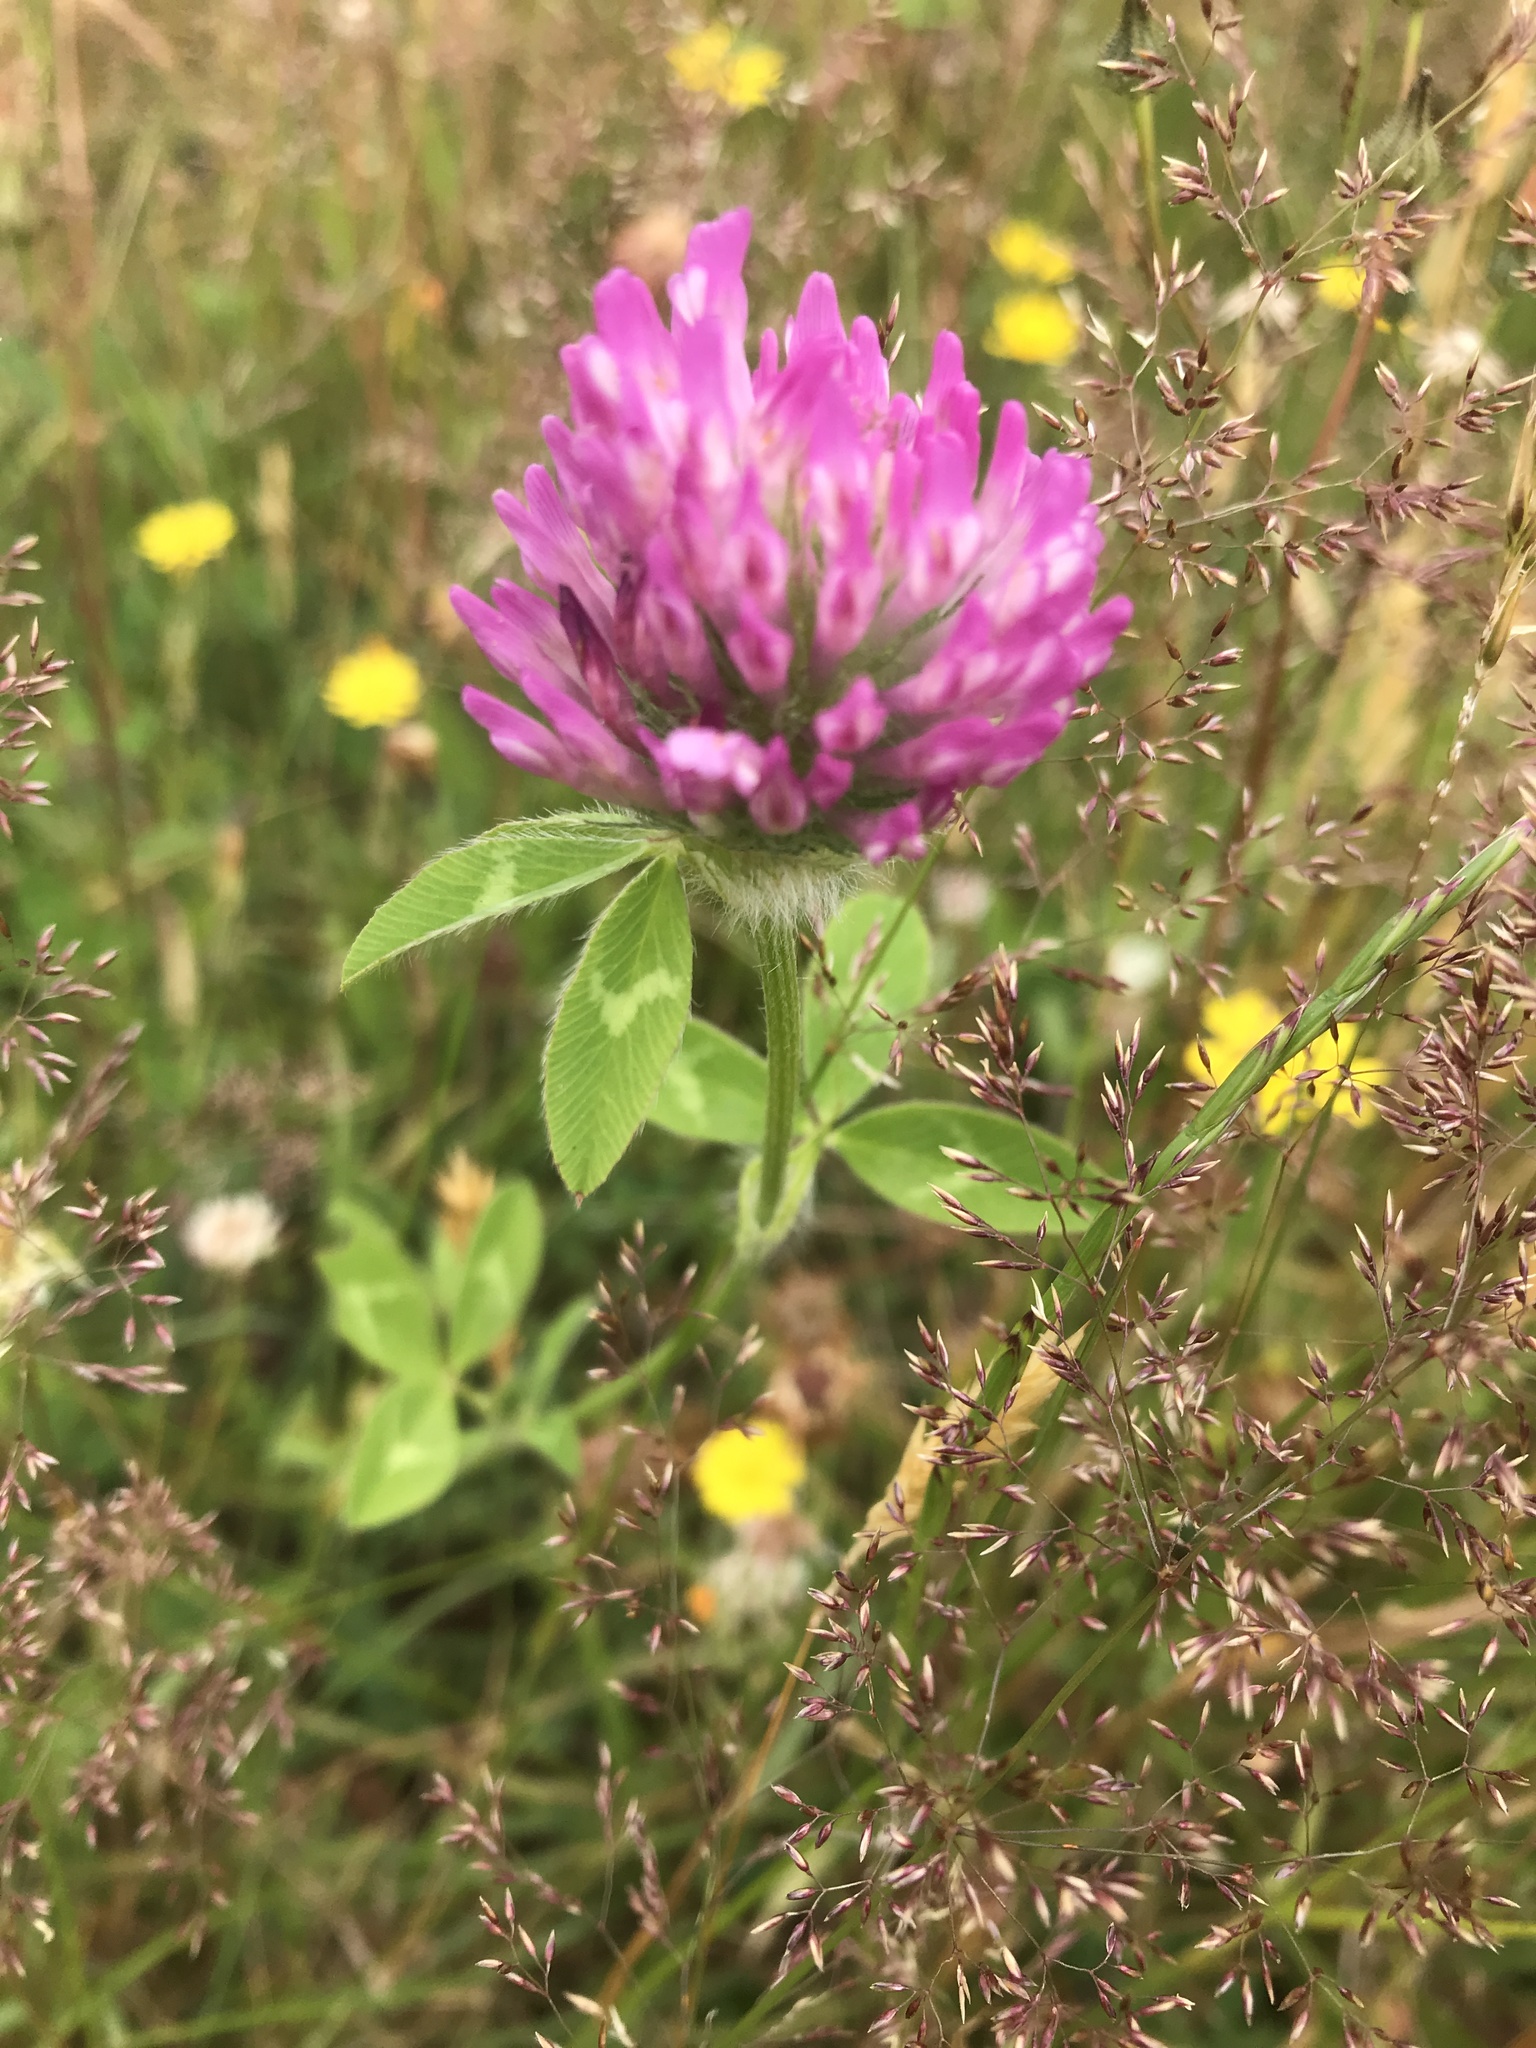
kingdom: Plantae
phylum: Tracheophyta
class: Magnoliopsida
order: Fabales
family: Fabaceae
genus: Trifolium
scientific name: Trifolium pratense
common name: Red clover
